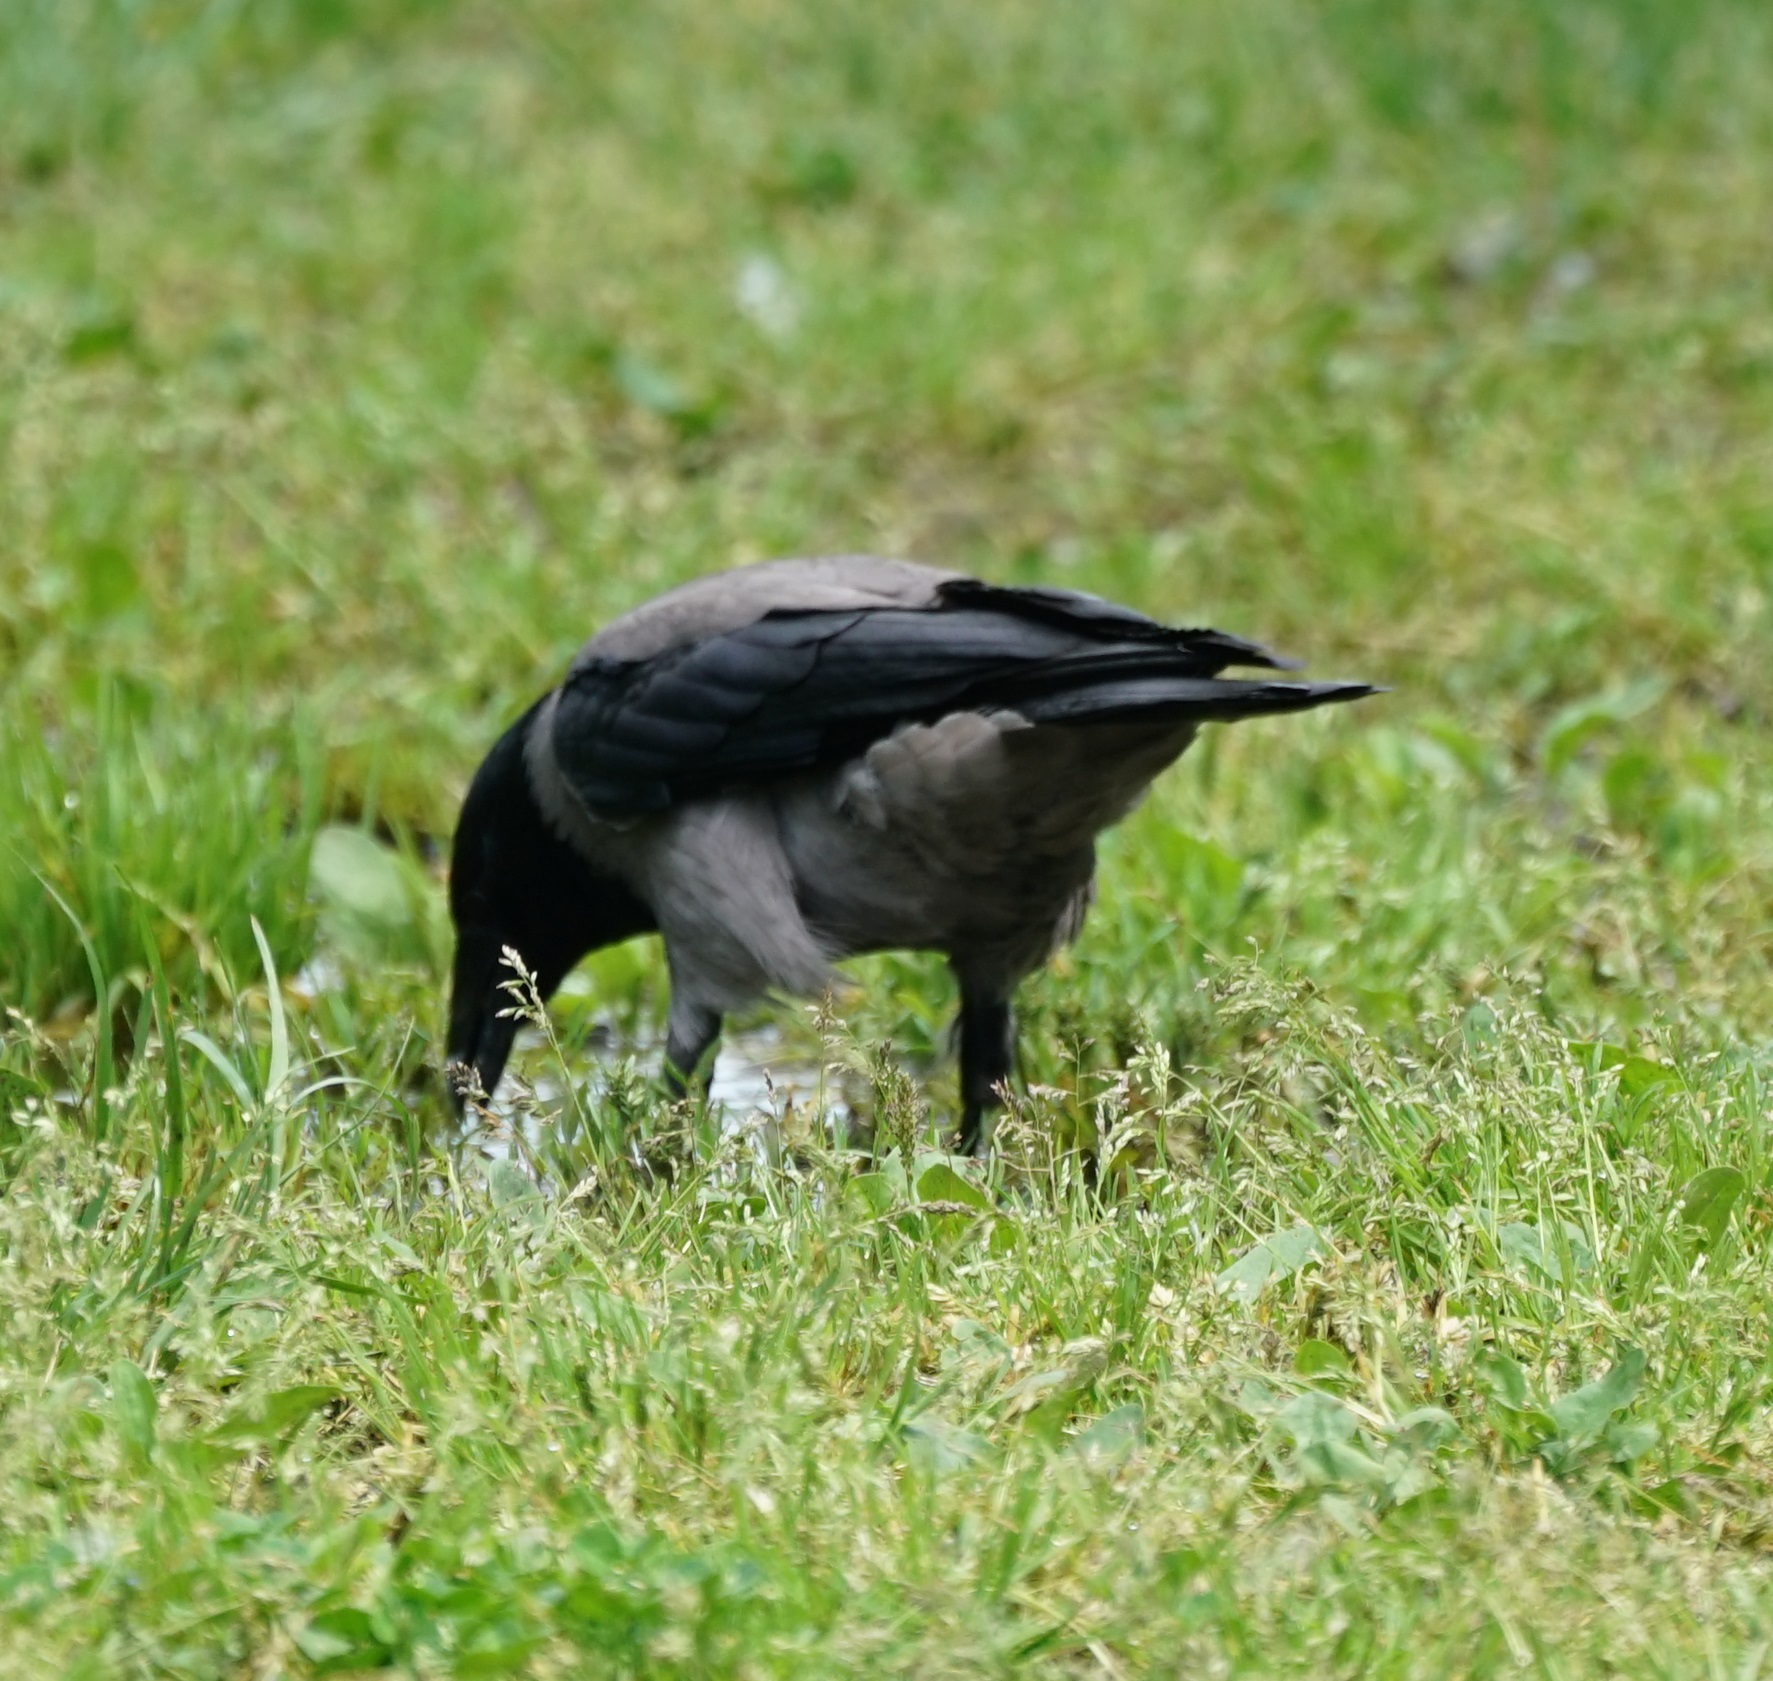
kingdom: Animalia
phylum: Chordata
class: Aves
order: Passeriformes
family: Corvidae
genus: Corvus
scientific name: Corvus cornix
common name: Hooded crow
